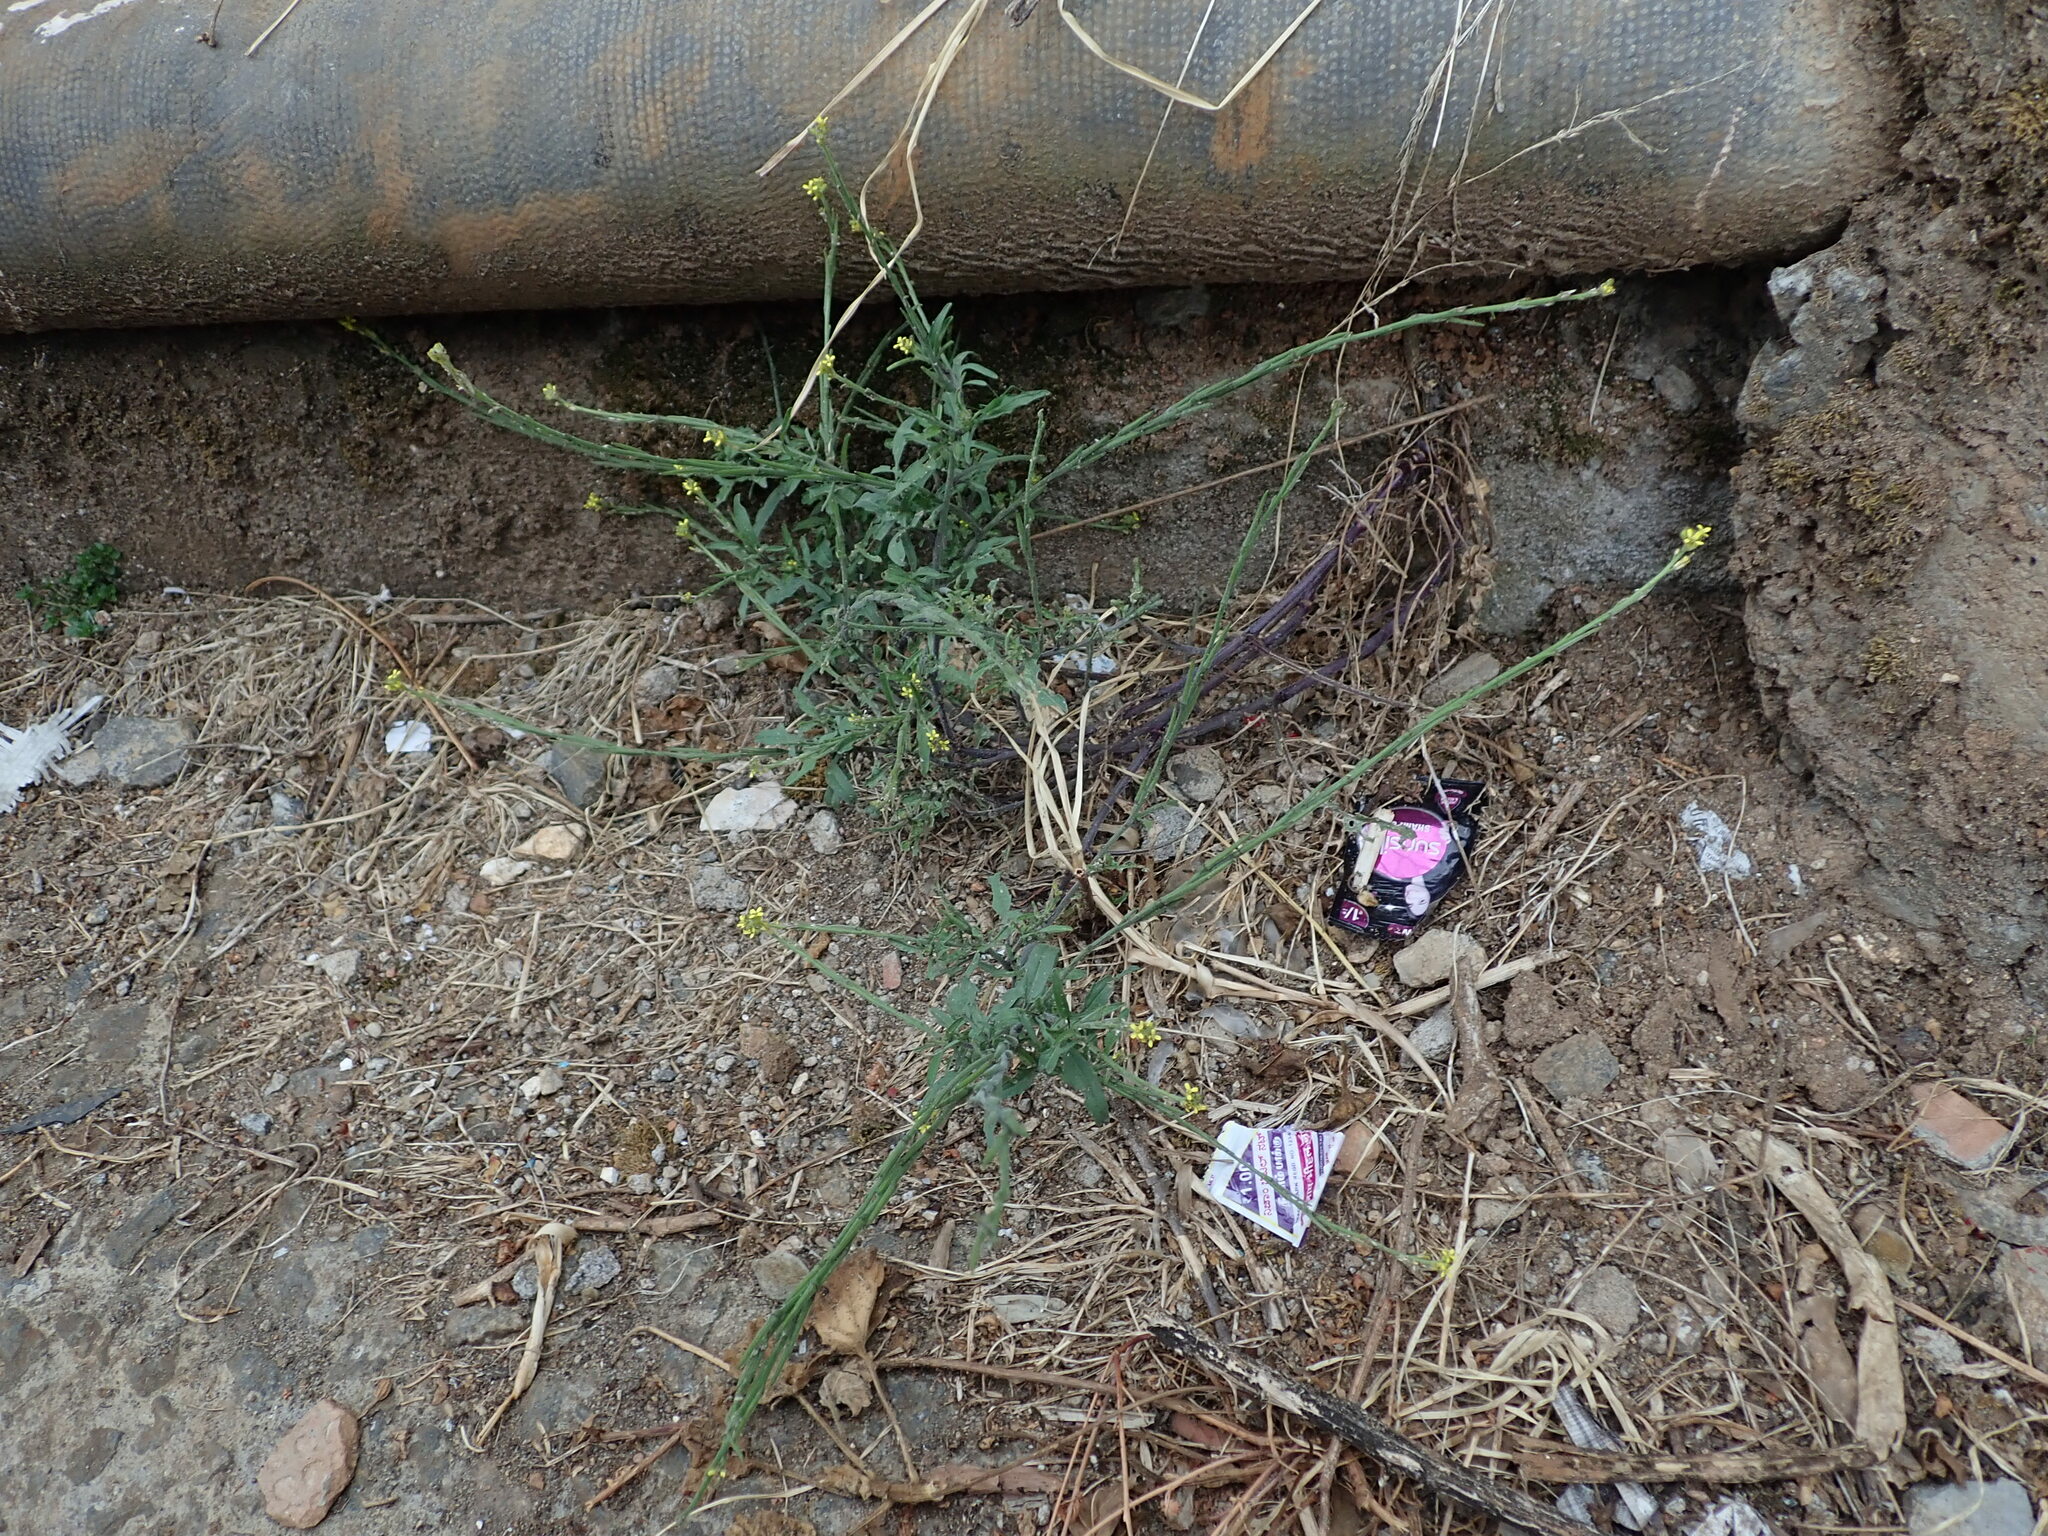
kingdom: Plantae
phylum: Tracheophyta
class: Magnoliopsida
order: Brassicales
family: Brassicaceae
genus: Sisymbrium
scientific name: Sisymbrium officinale
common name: Hedge mustard
